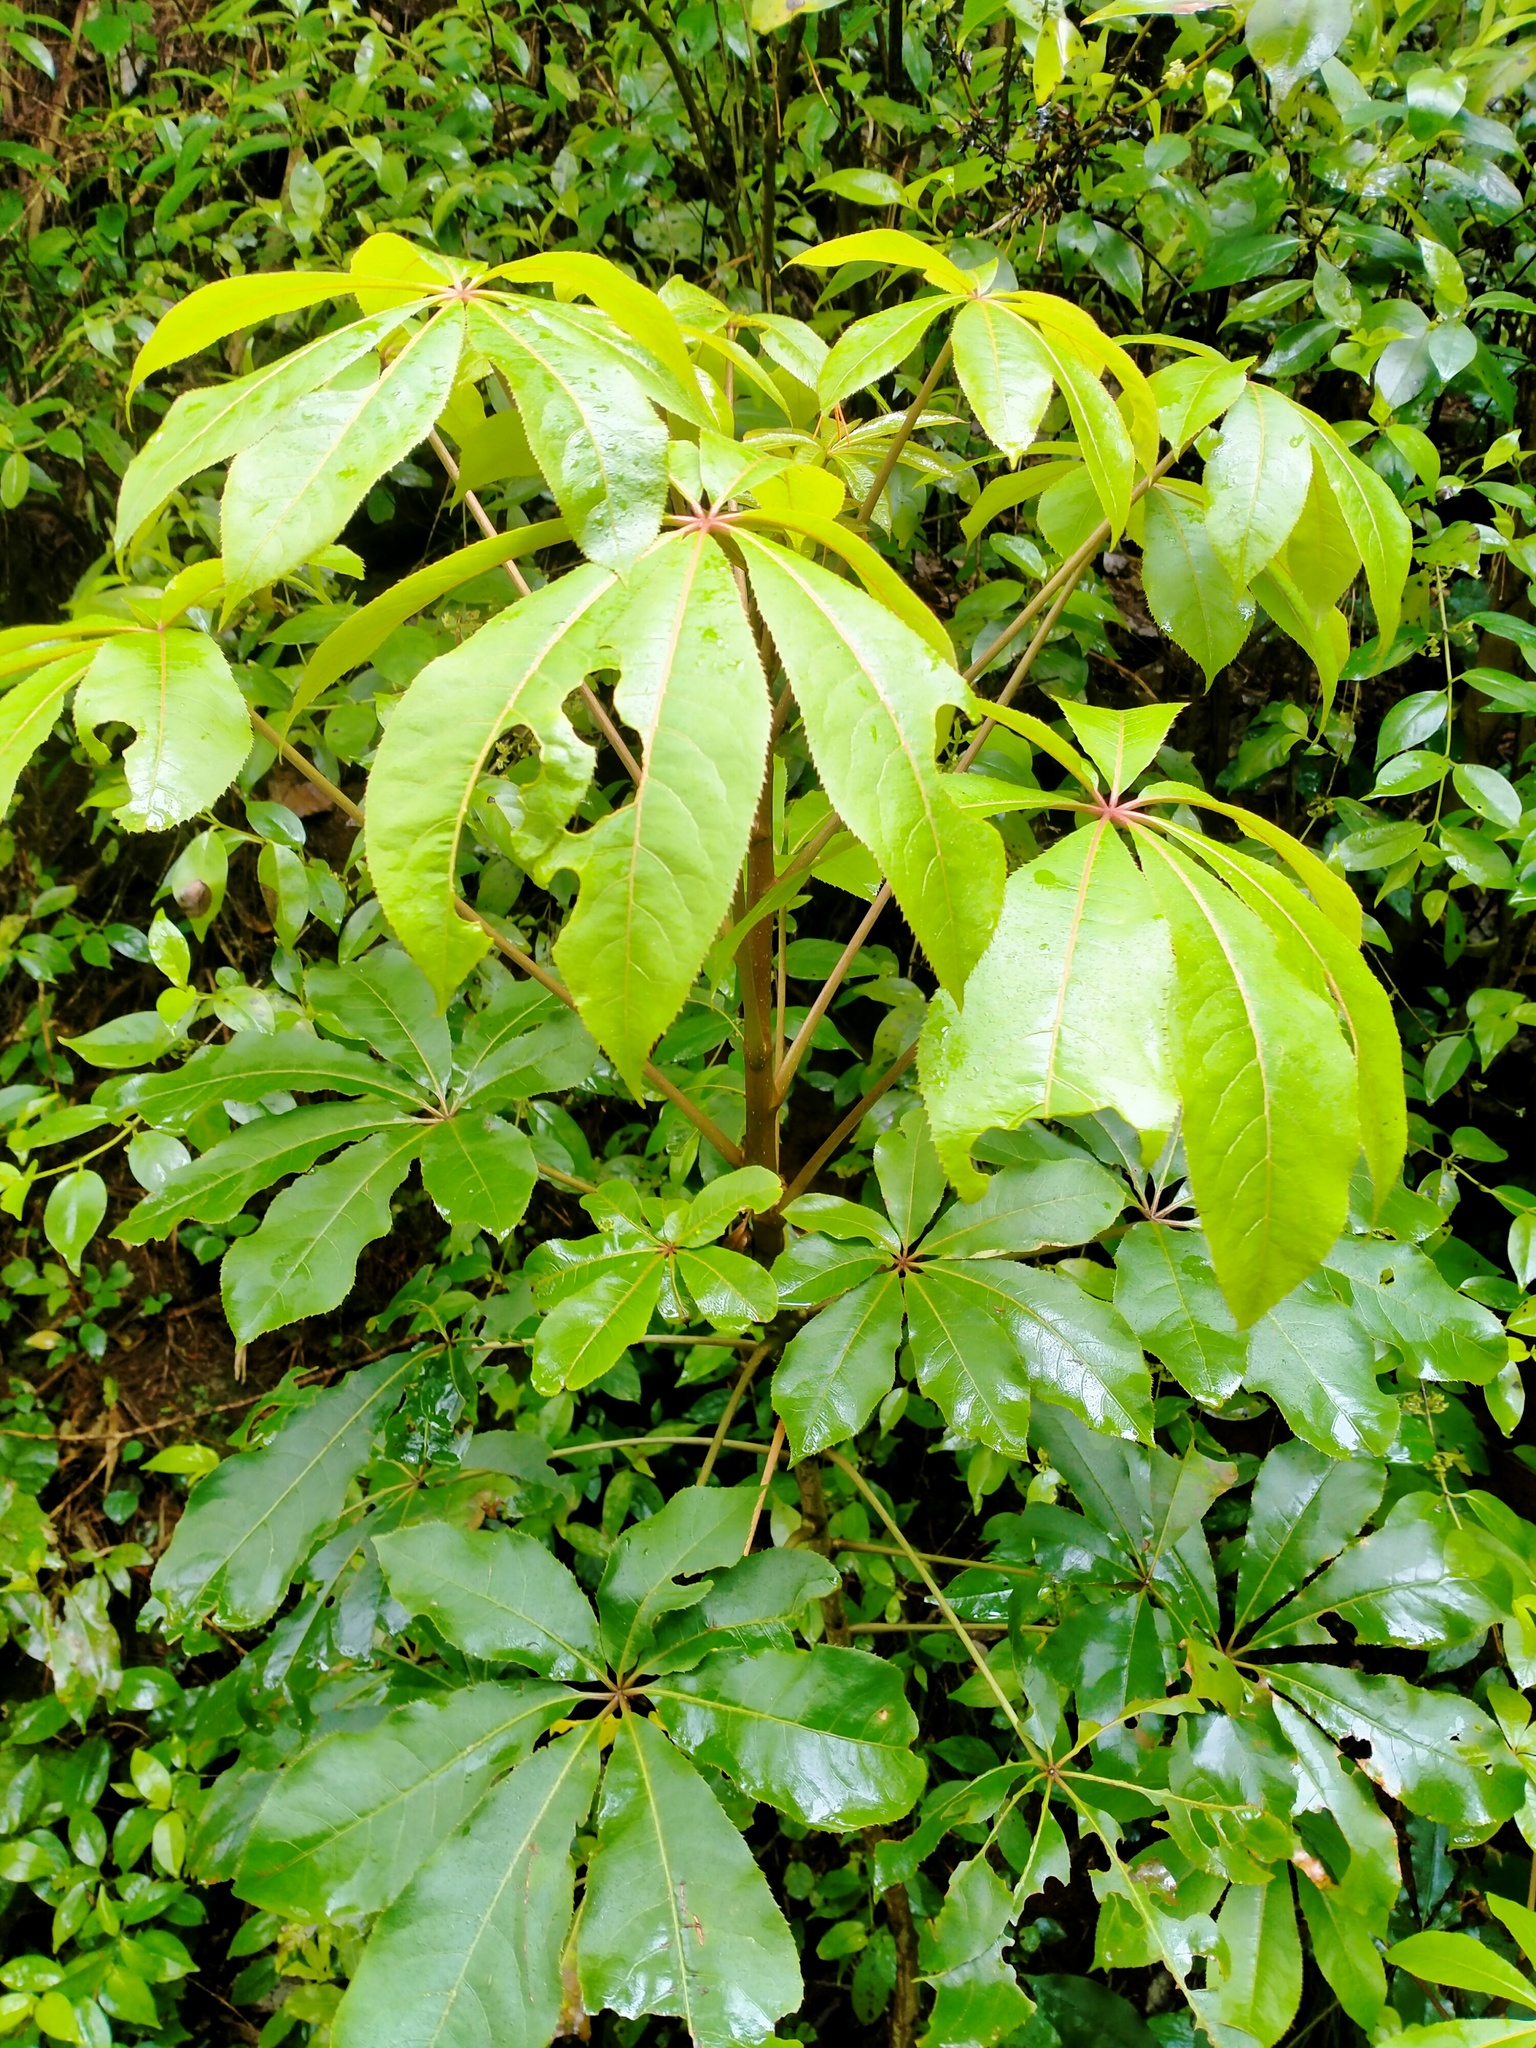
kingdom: Plantae
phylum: Tracheophyta
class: Magnoliopsida
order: Apiales
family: Araliaceae
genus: Schefflera
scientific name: Schefflera digitata
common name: Pate
